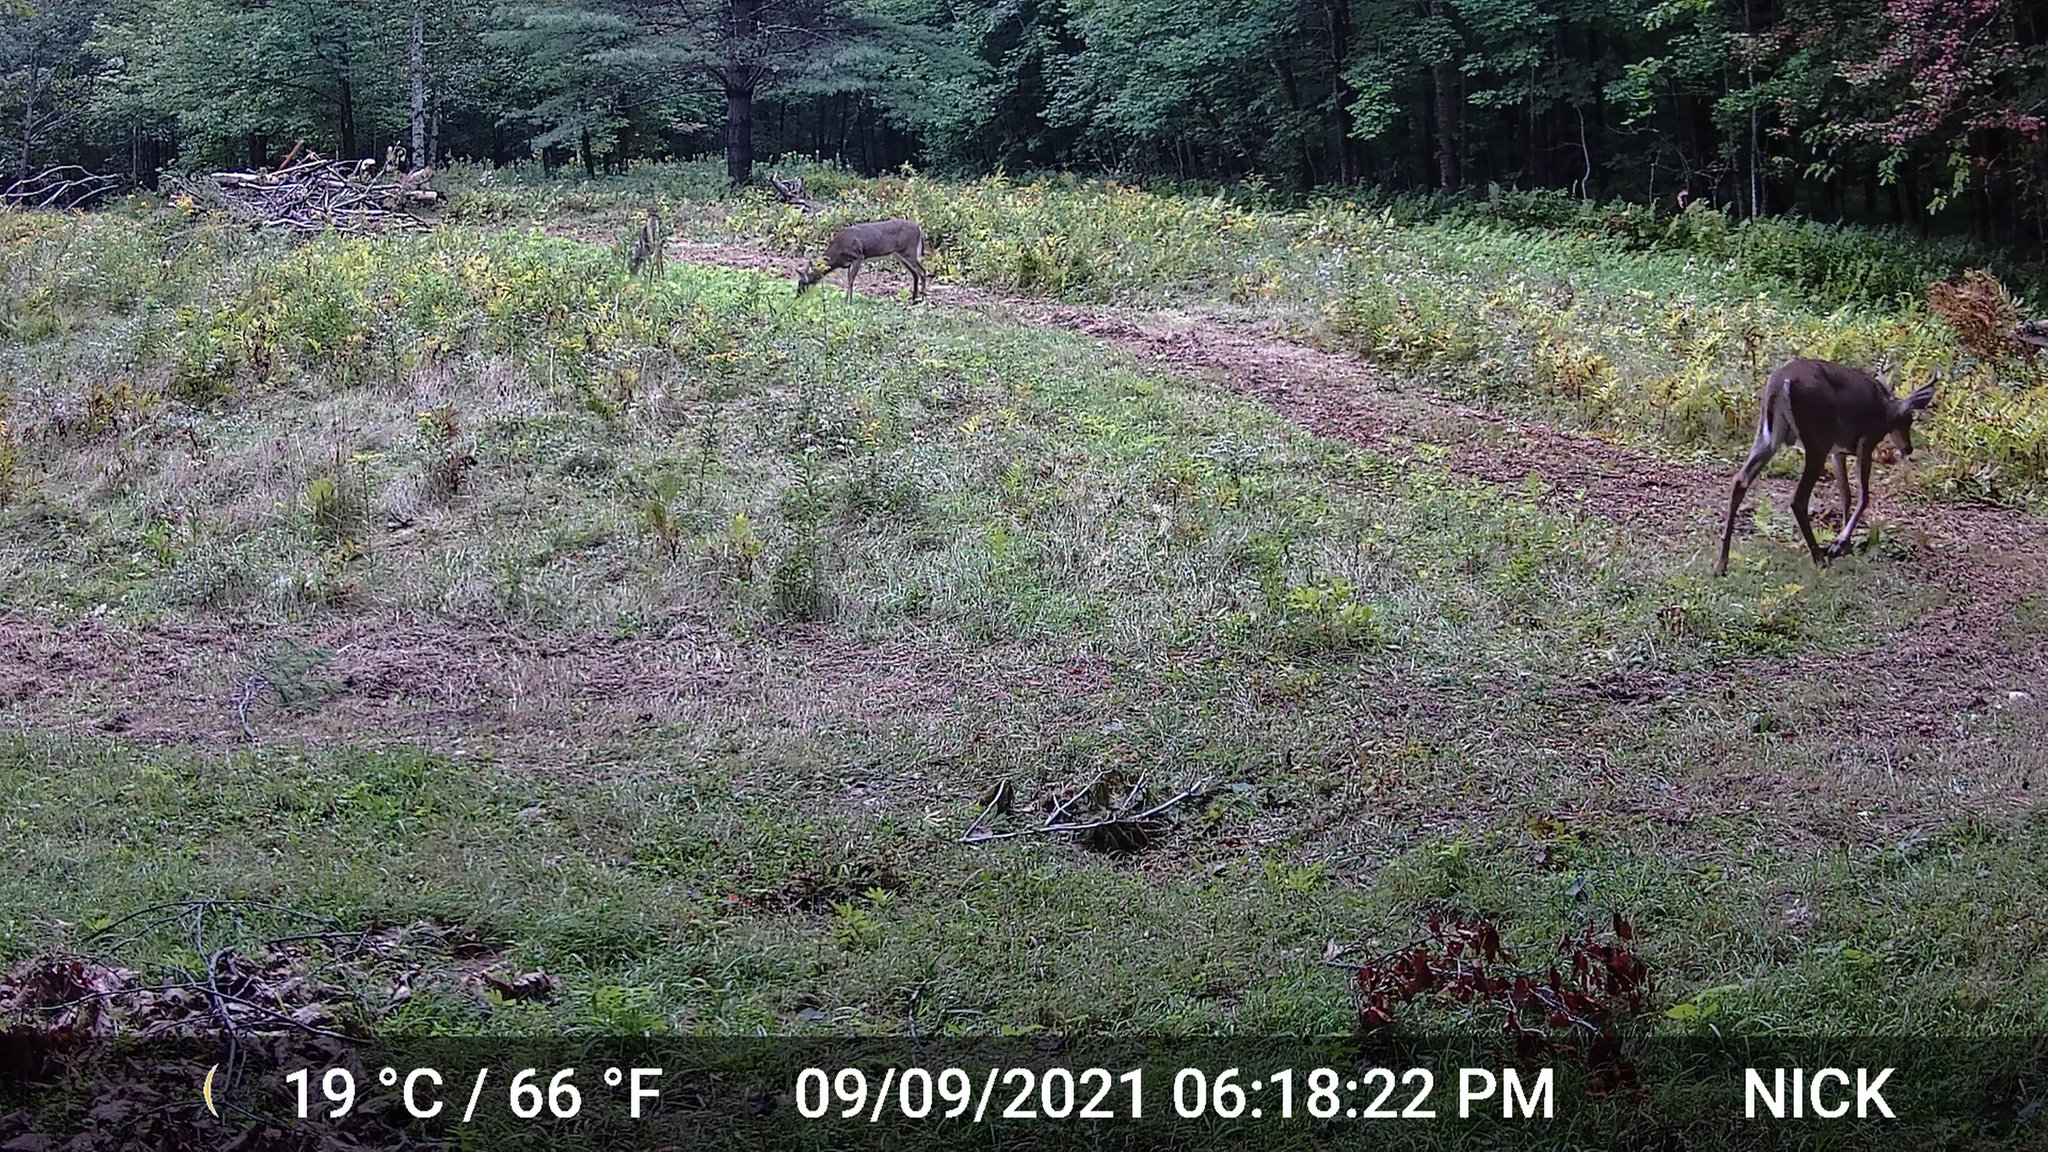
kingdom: Animalia
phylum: Chordata
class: Mammalia
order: Artiodactyla
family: Cervidae
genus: Odocoileus
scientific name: Odocoileus virginianus
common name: White-tailed deer
